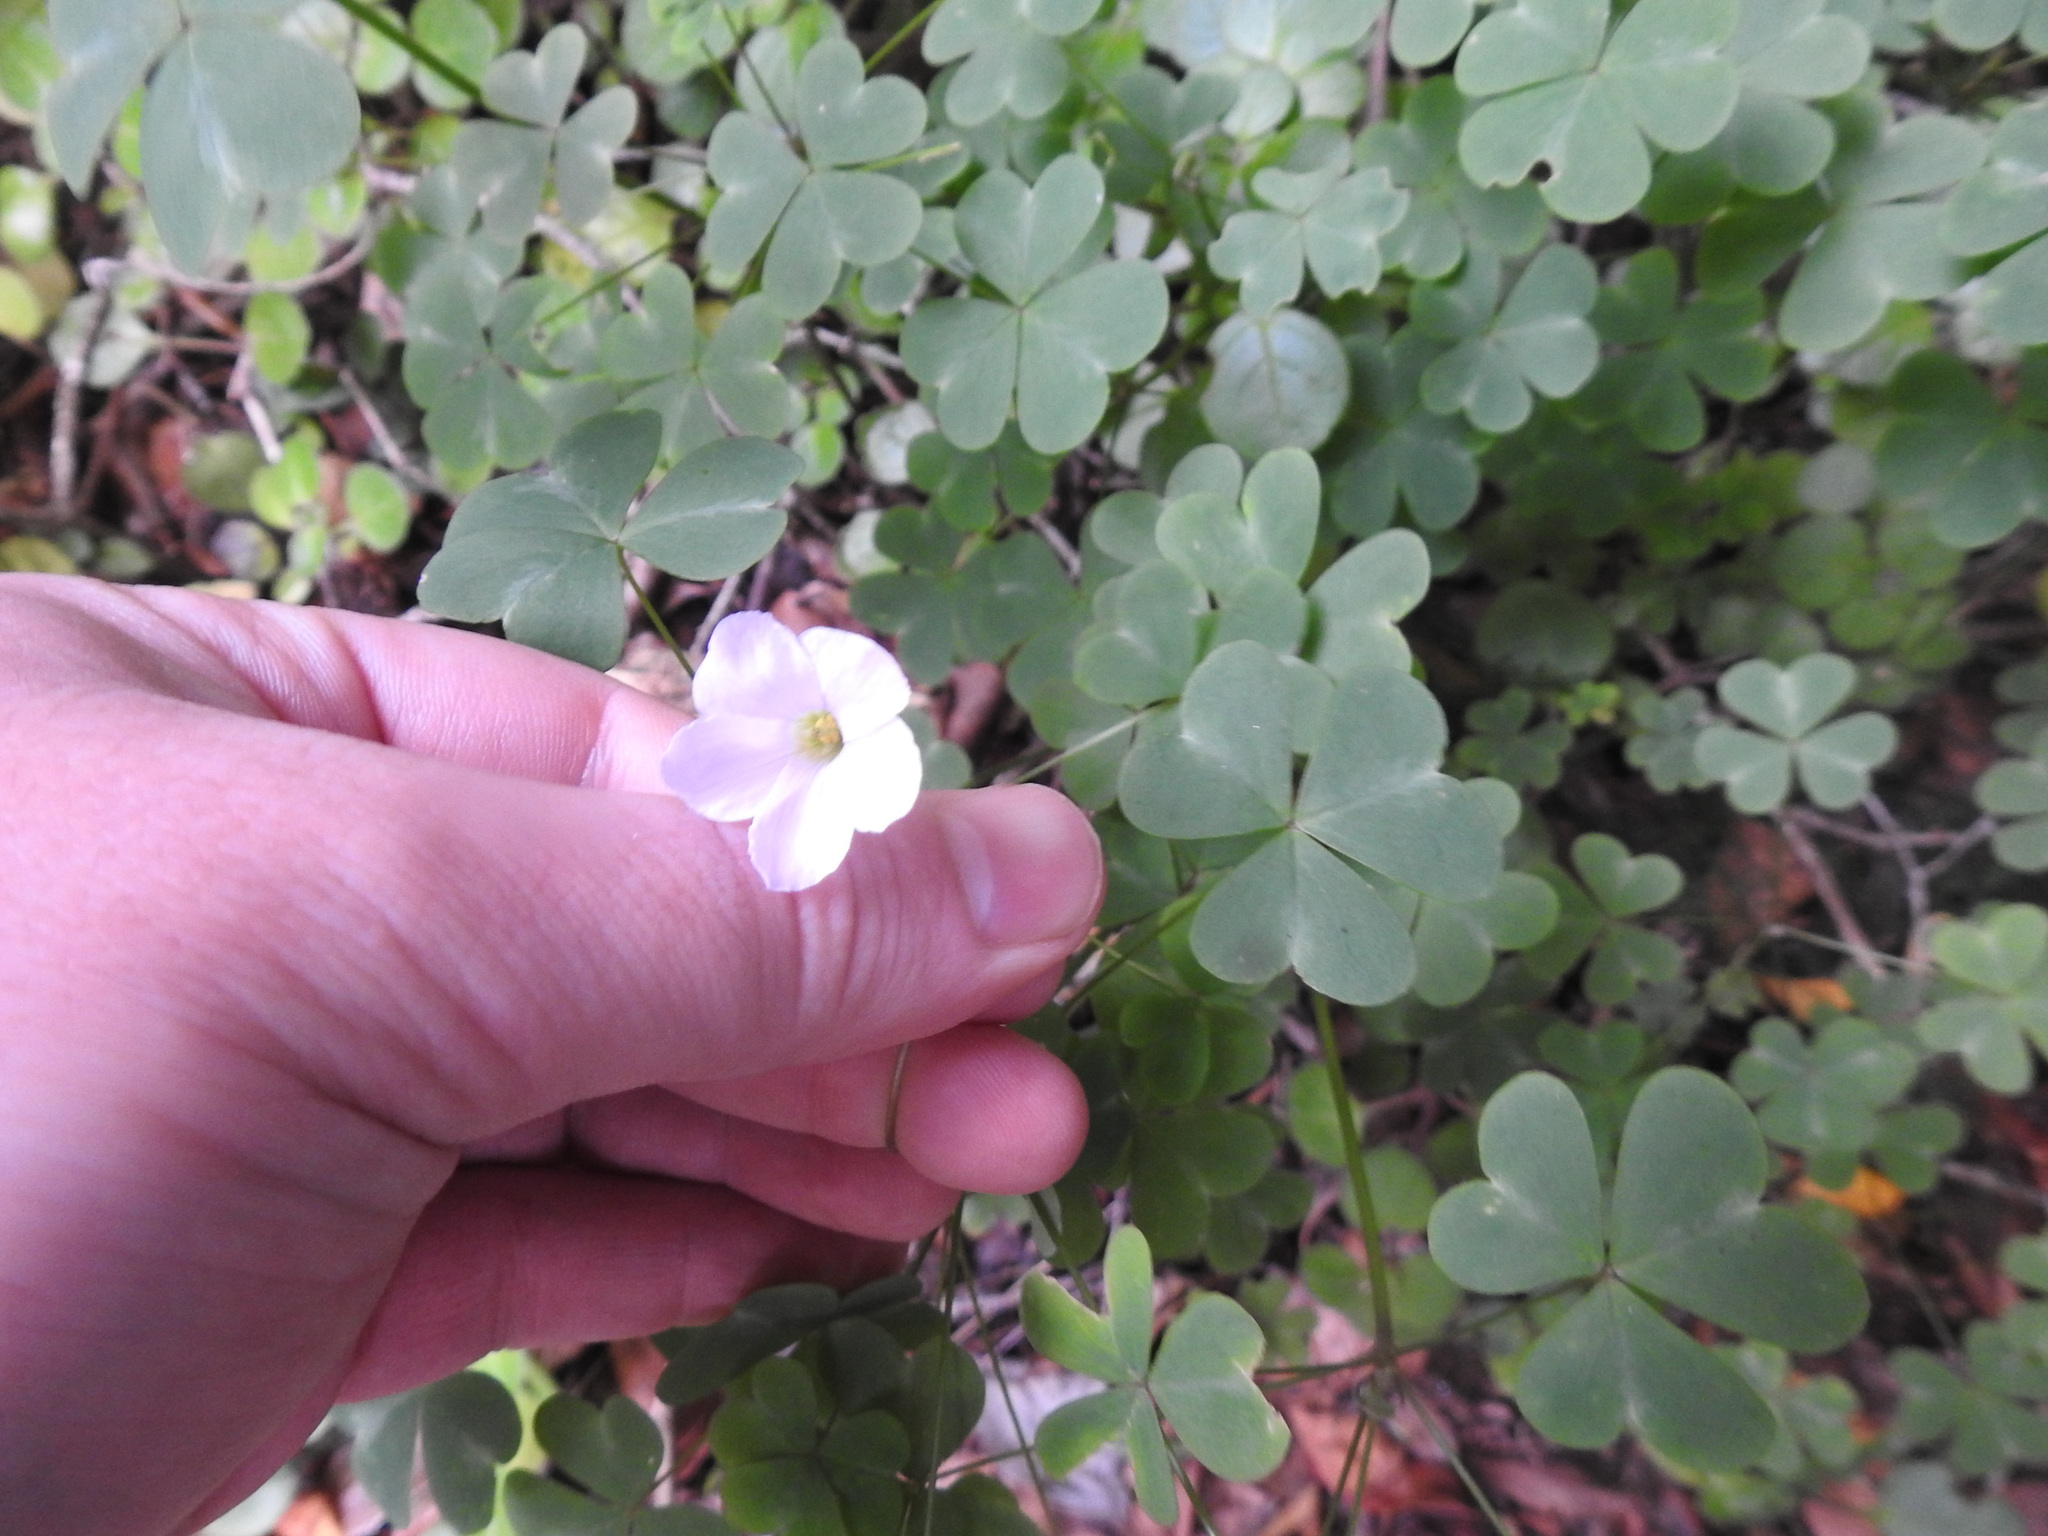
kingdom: Plantae
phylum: Tracheophyta
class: Magnoliopsida
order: Oxalidales
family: Oxalidaceae
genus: Oxalis
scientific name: Oxalis incarnata
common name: Pale pink-sorrel
